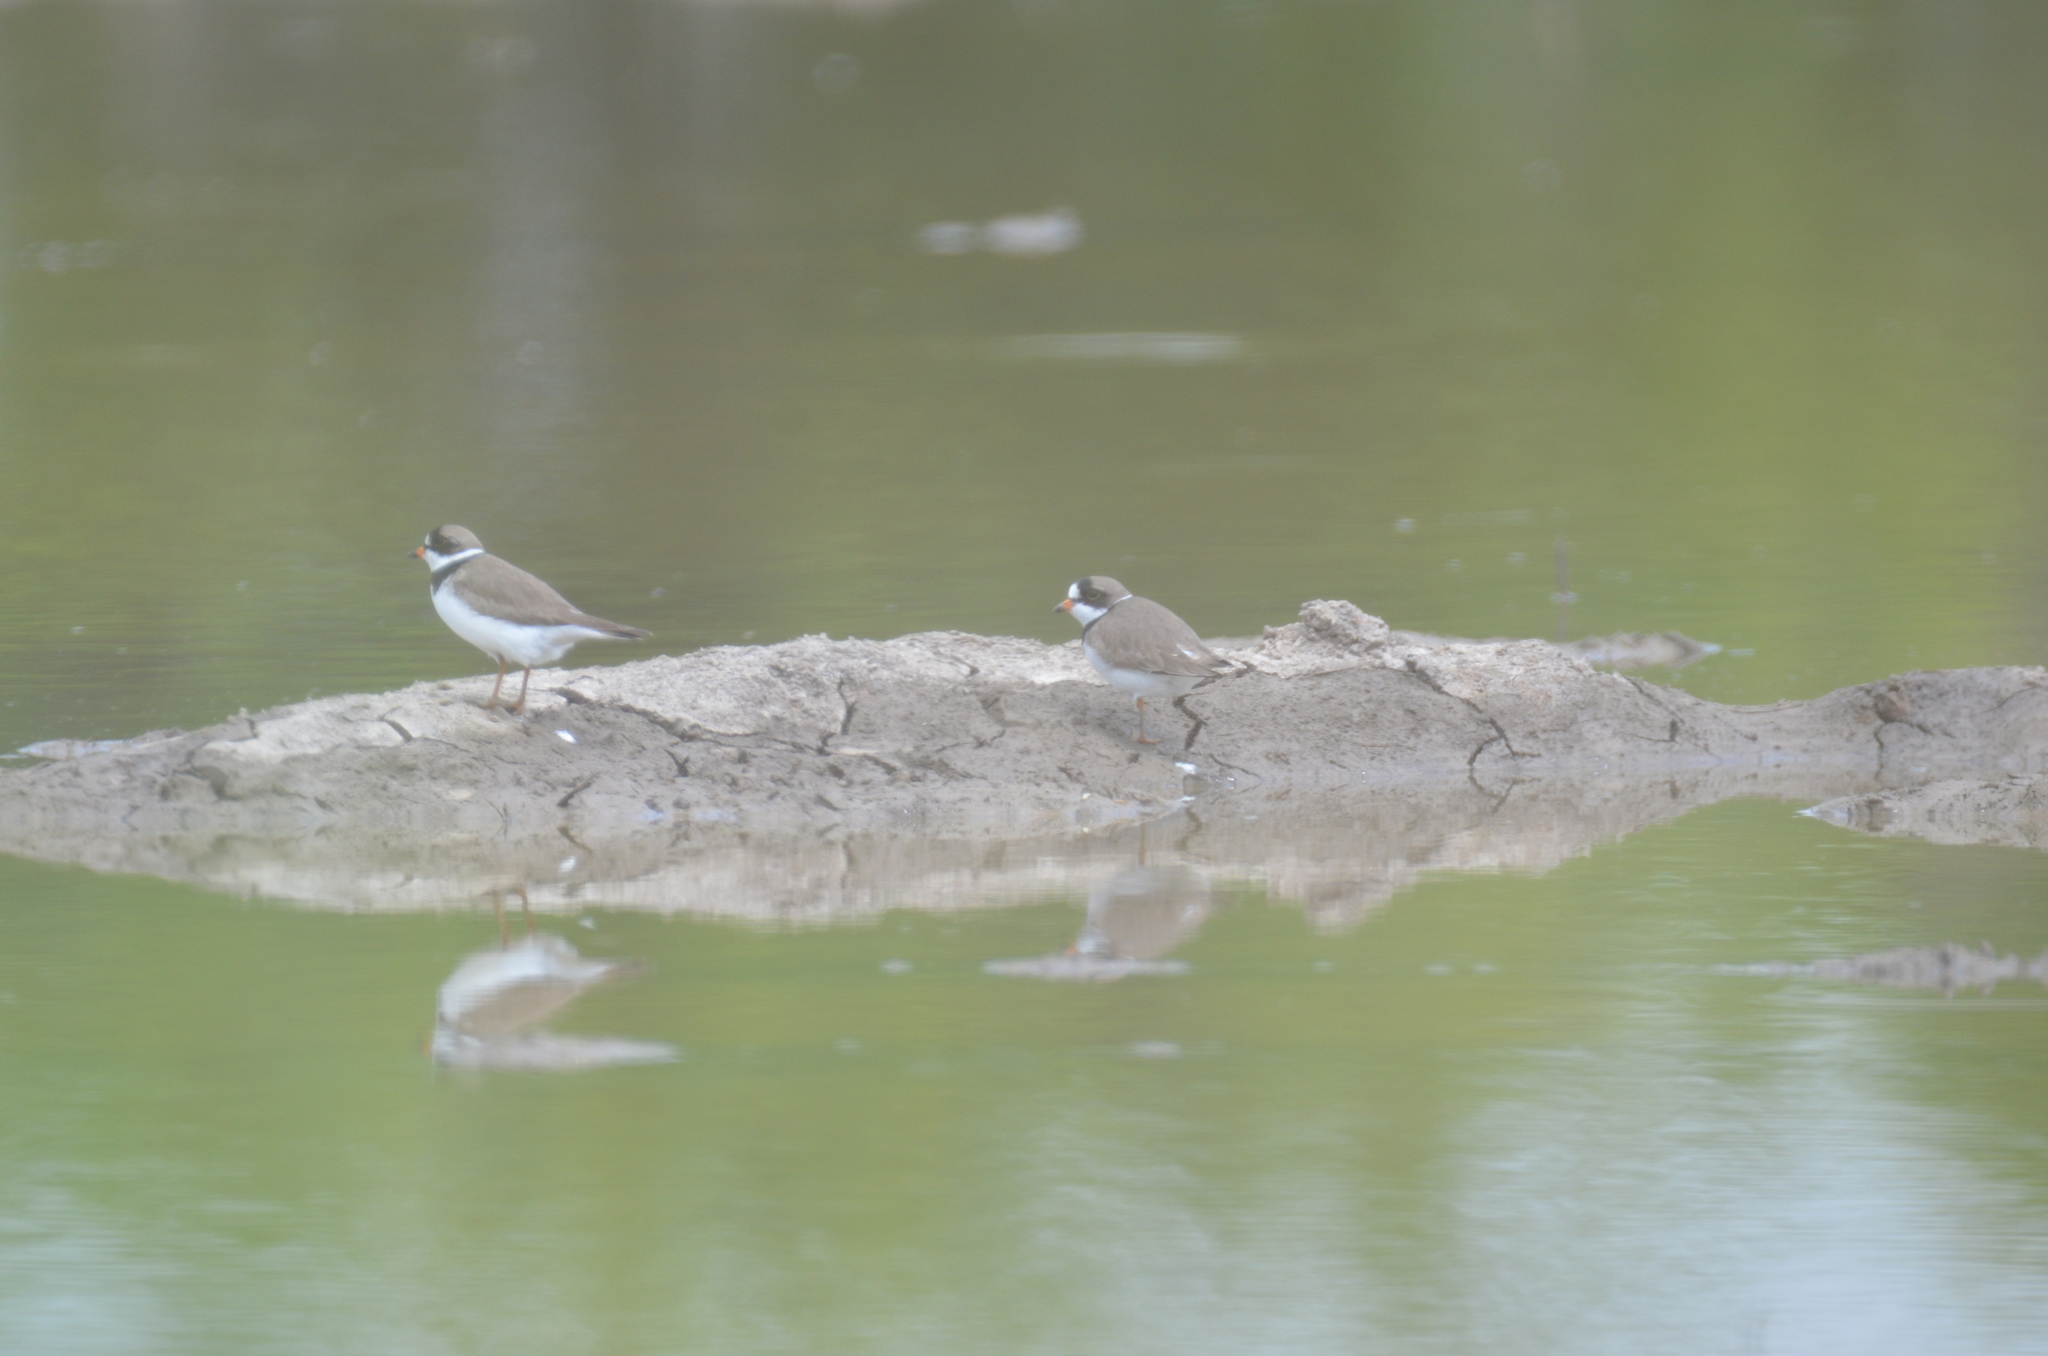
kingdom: Animalia
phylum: Chordata
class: Aves
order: Charadriiformes
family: Charadriidae
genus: Charadrius
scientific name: Charadrius semipalmatus
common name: Semipalmated plover
